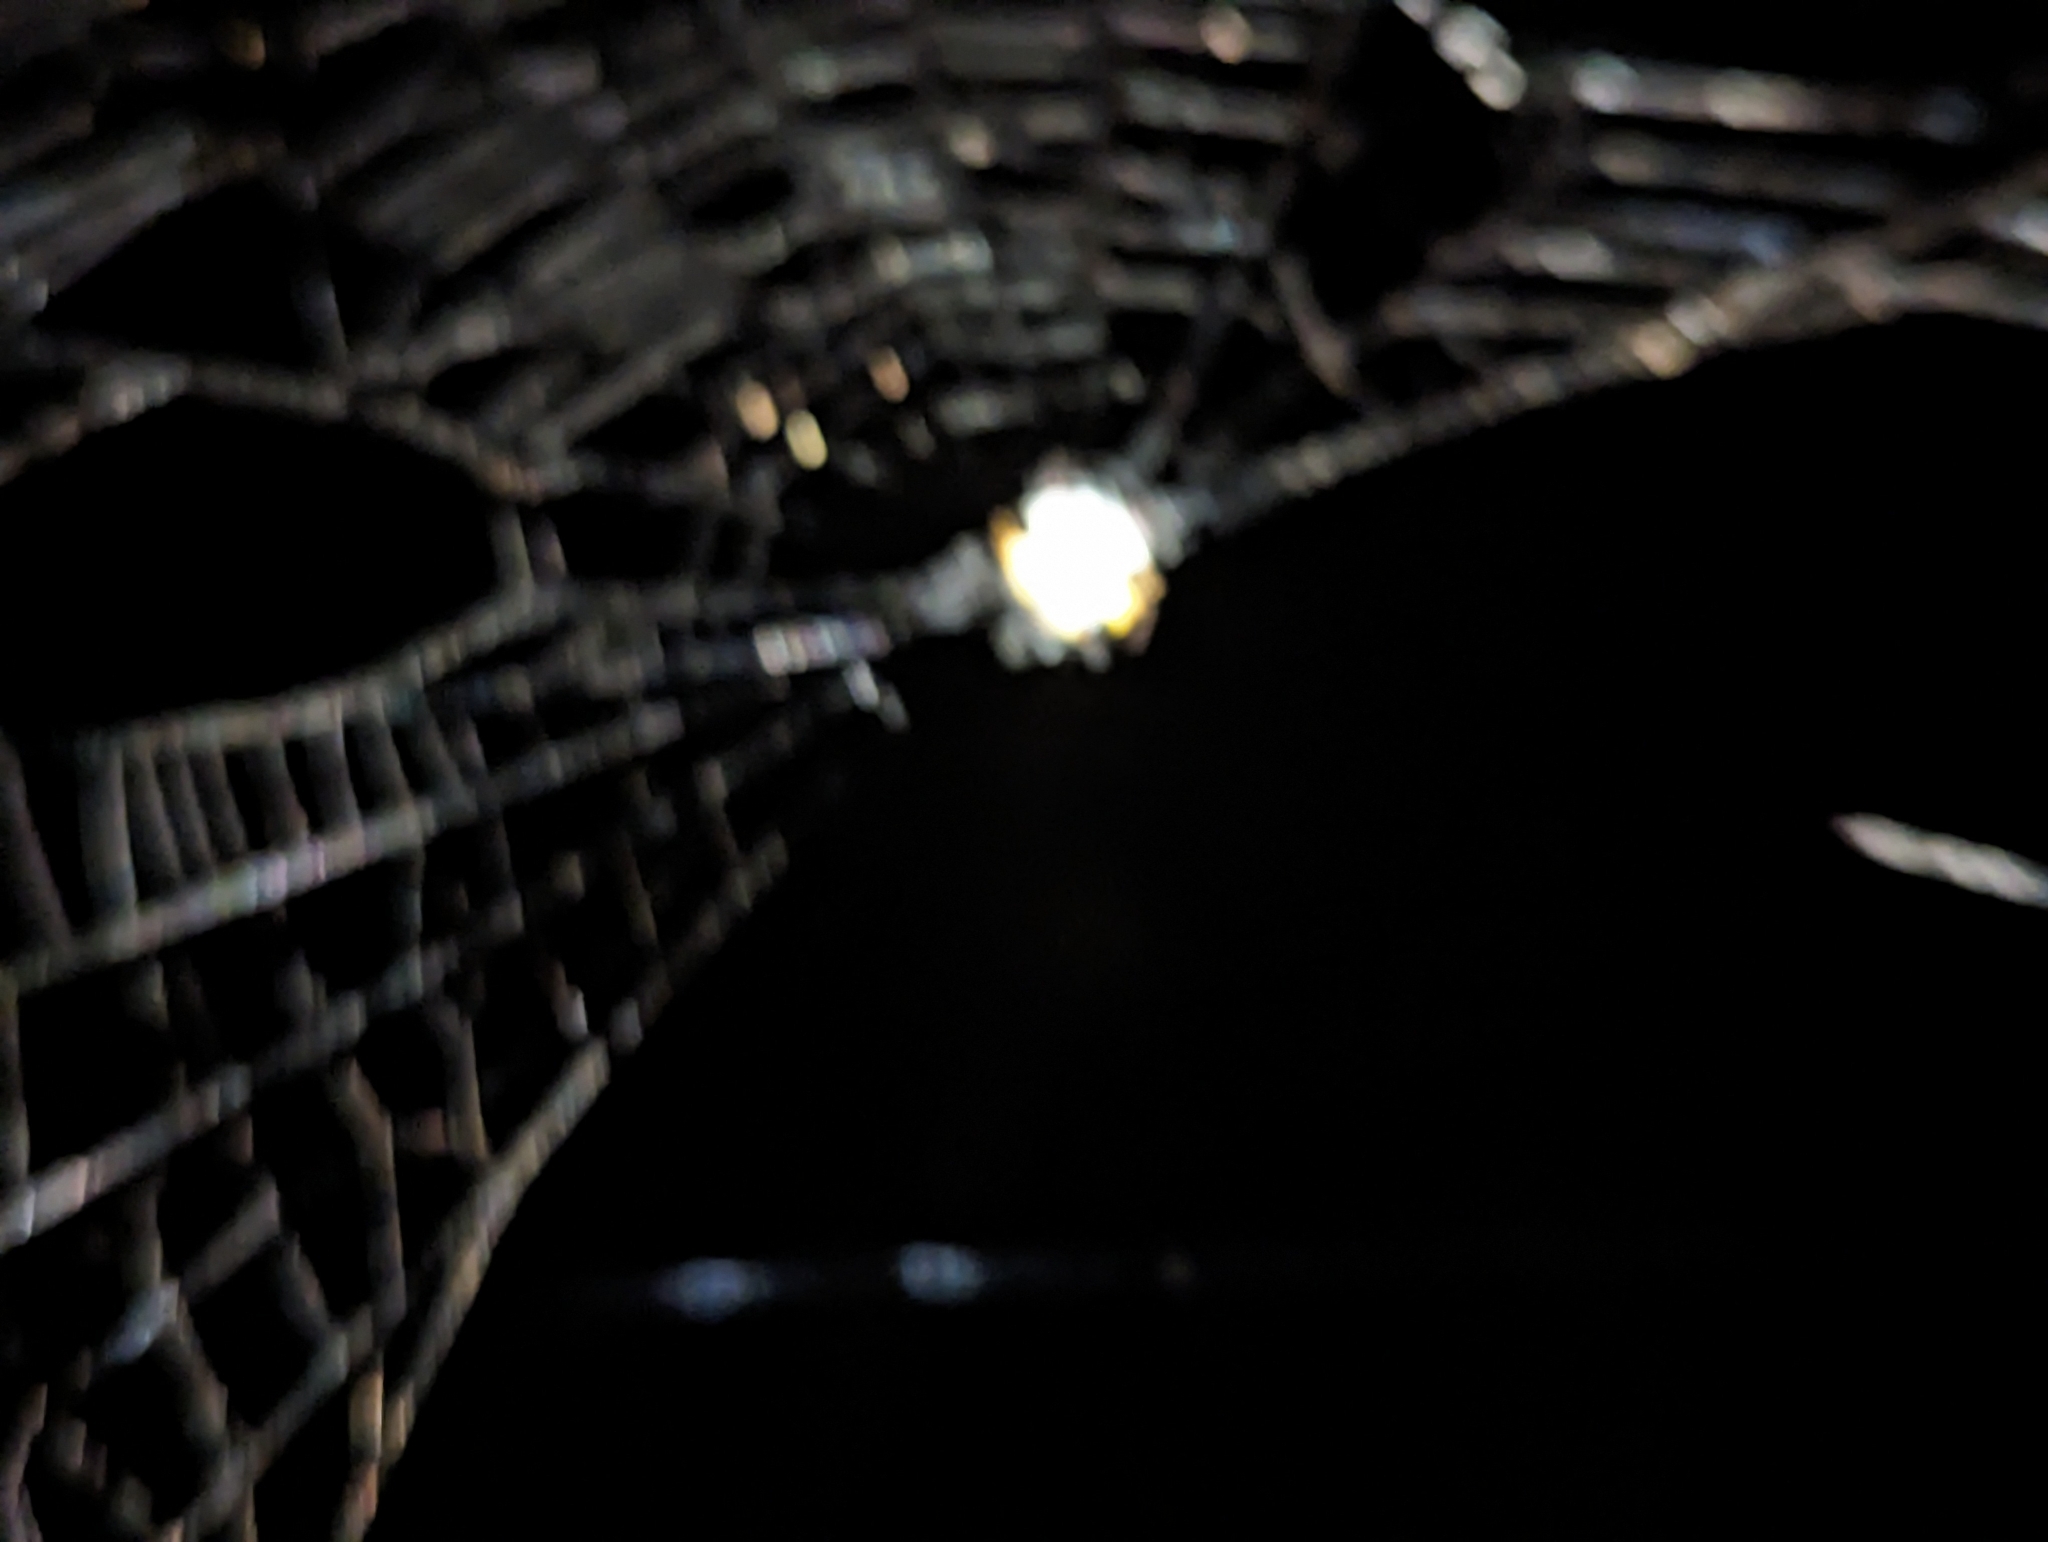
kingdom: Animalia
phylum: Arthropoda
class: Arachnida
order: Araneae
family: Araneidae
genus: Austracantha
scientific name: Austracantha minax
